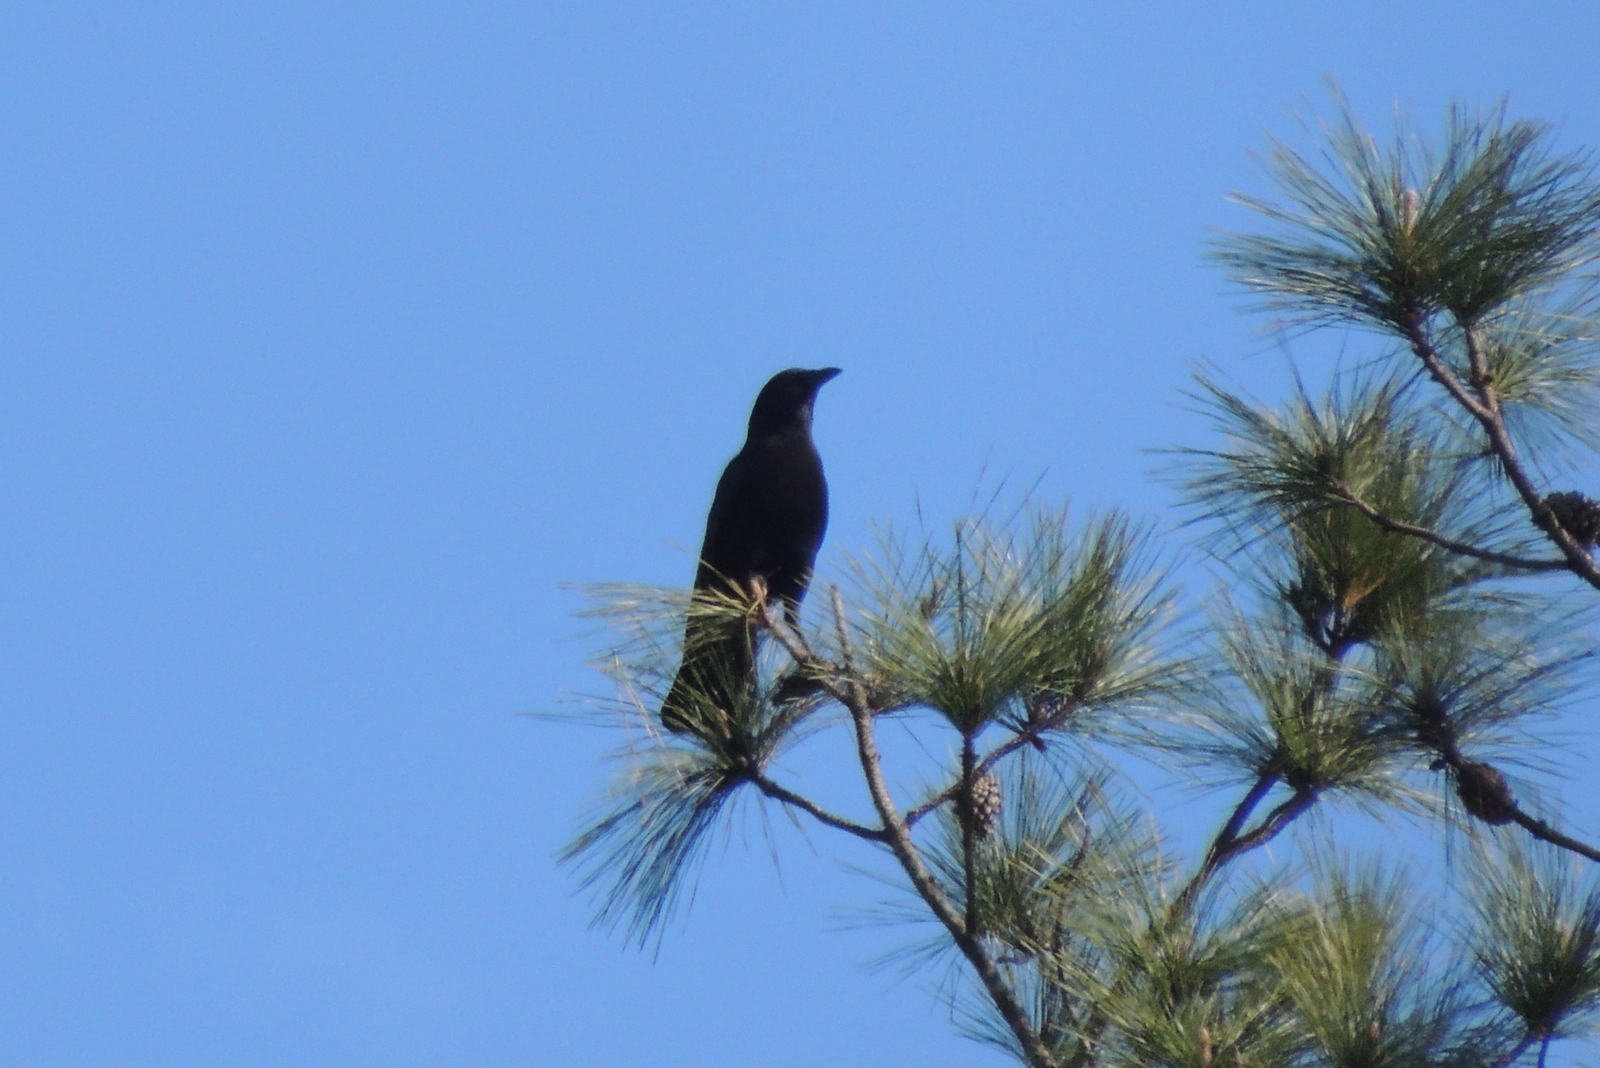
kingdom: Animalia
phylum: Chordata
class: Aves
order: Passeriformes
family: Corvidae
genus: Corvus
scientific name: Corvus
